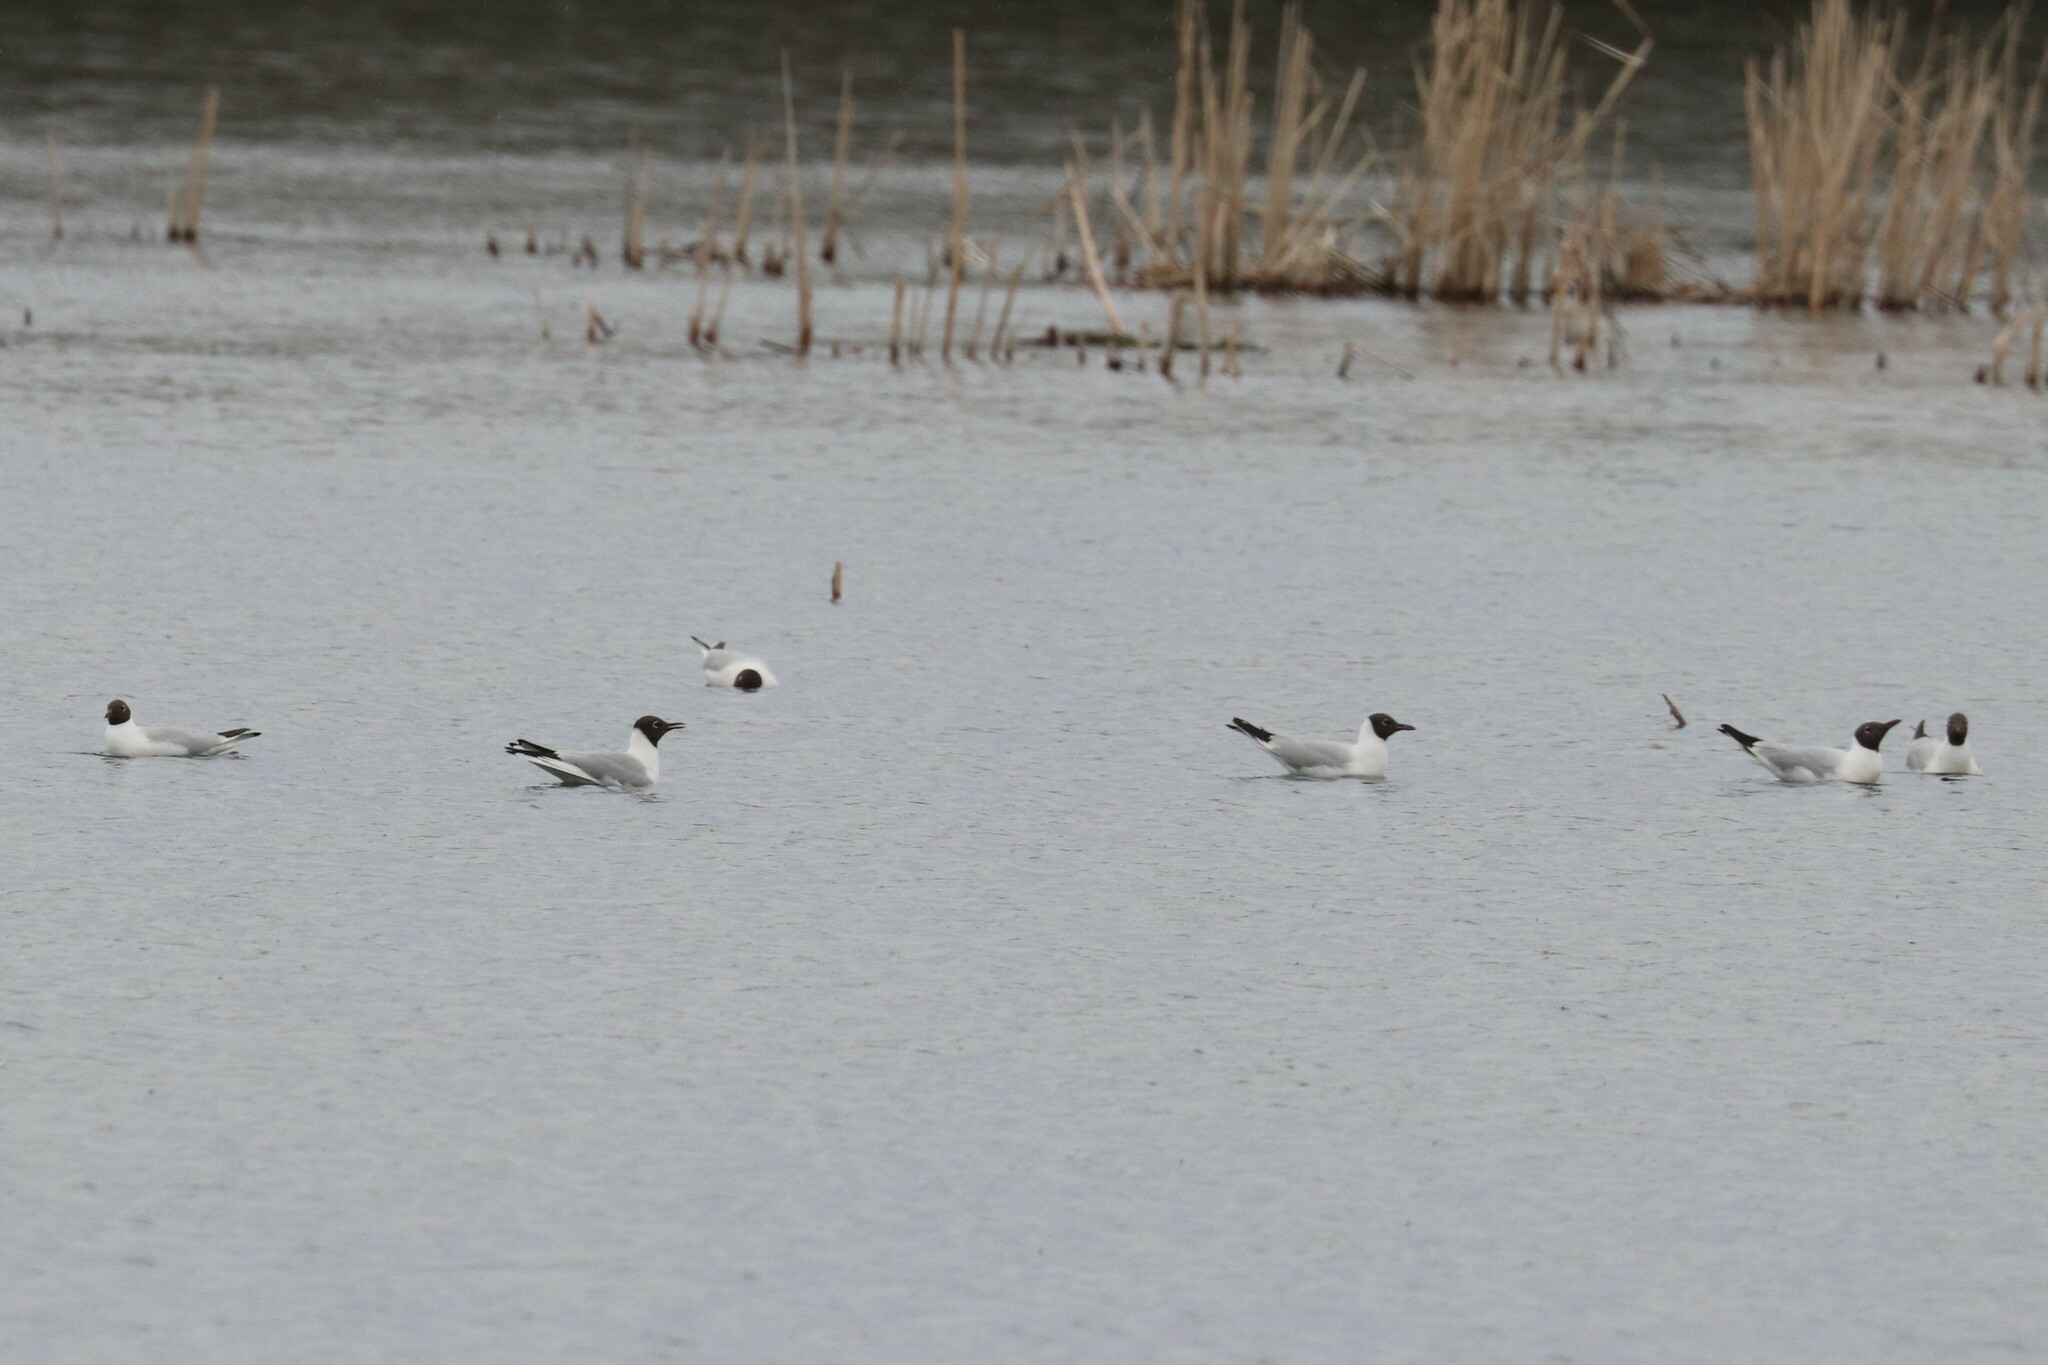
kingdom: Animalia
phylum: Chordata
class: Aves
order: Charadriiformes
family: Laridae
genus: Chroicocephalus
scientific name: Chroicocephalus ridibundus
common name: Black-headed gull
